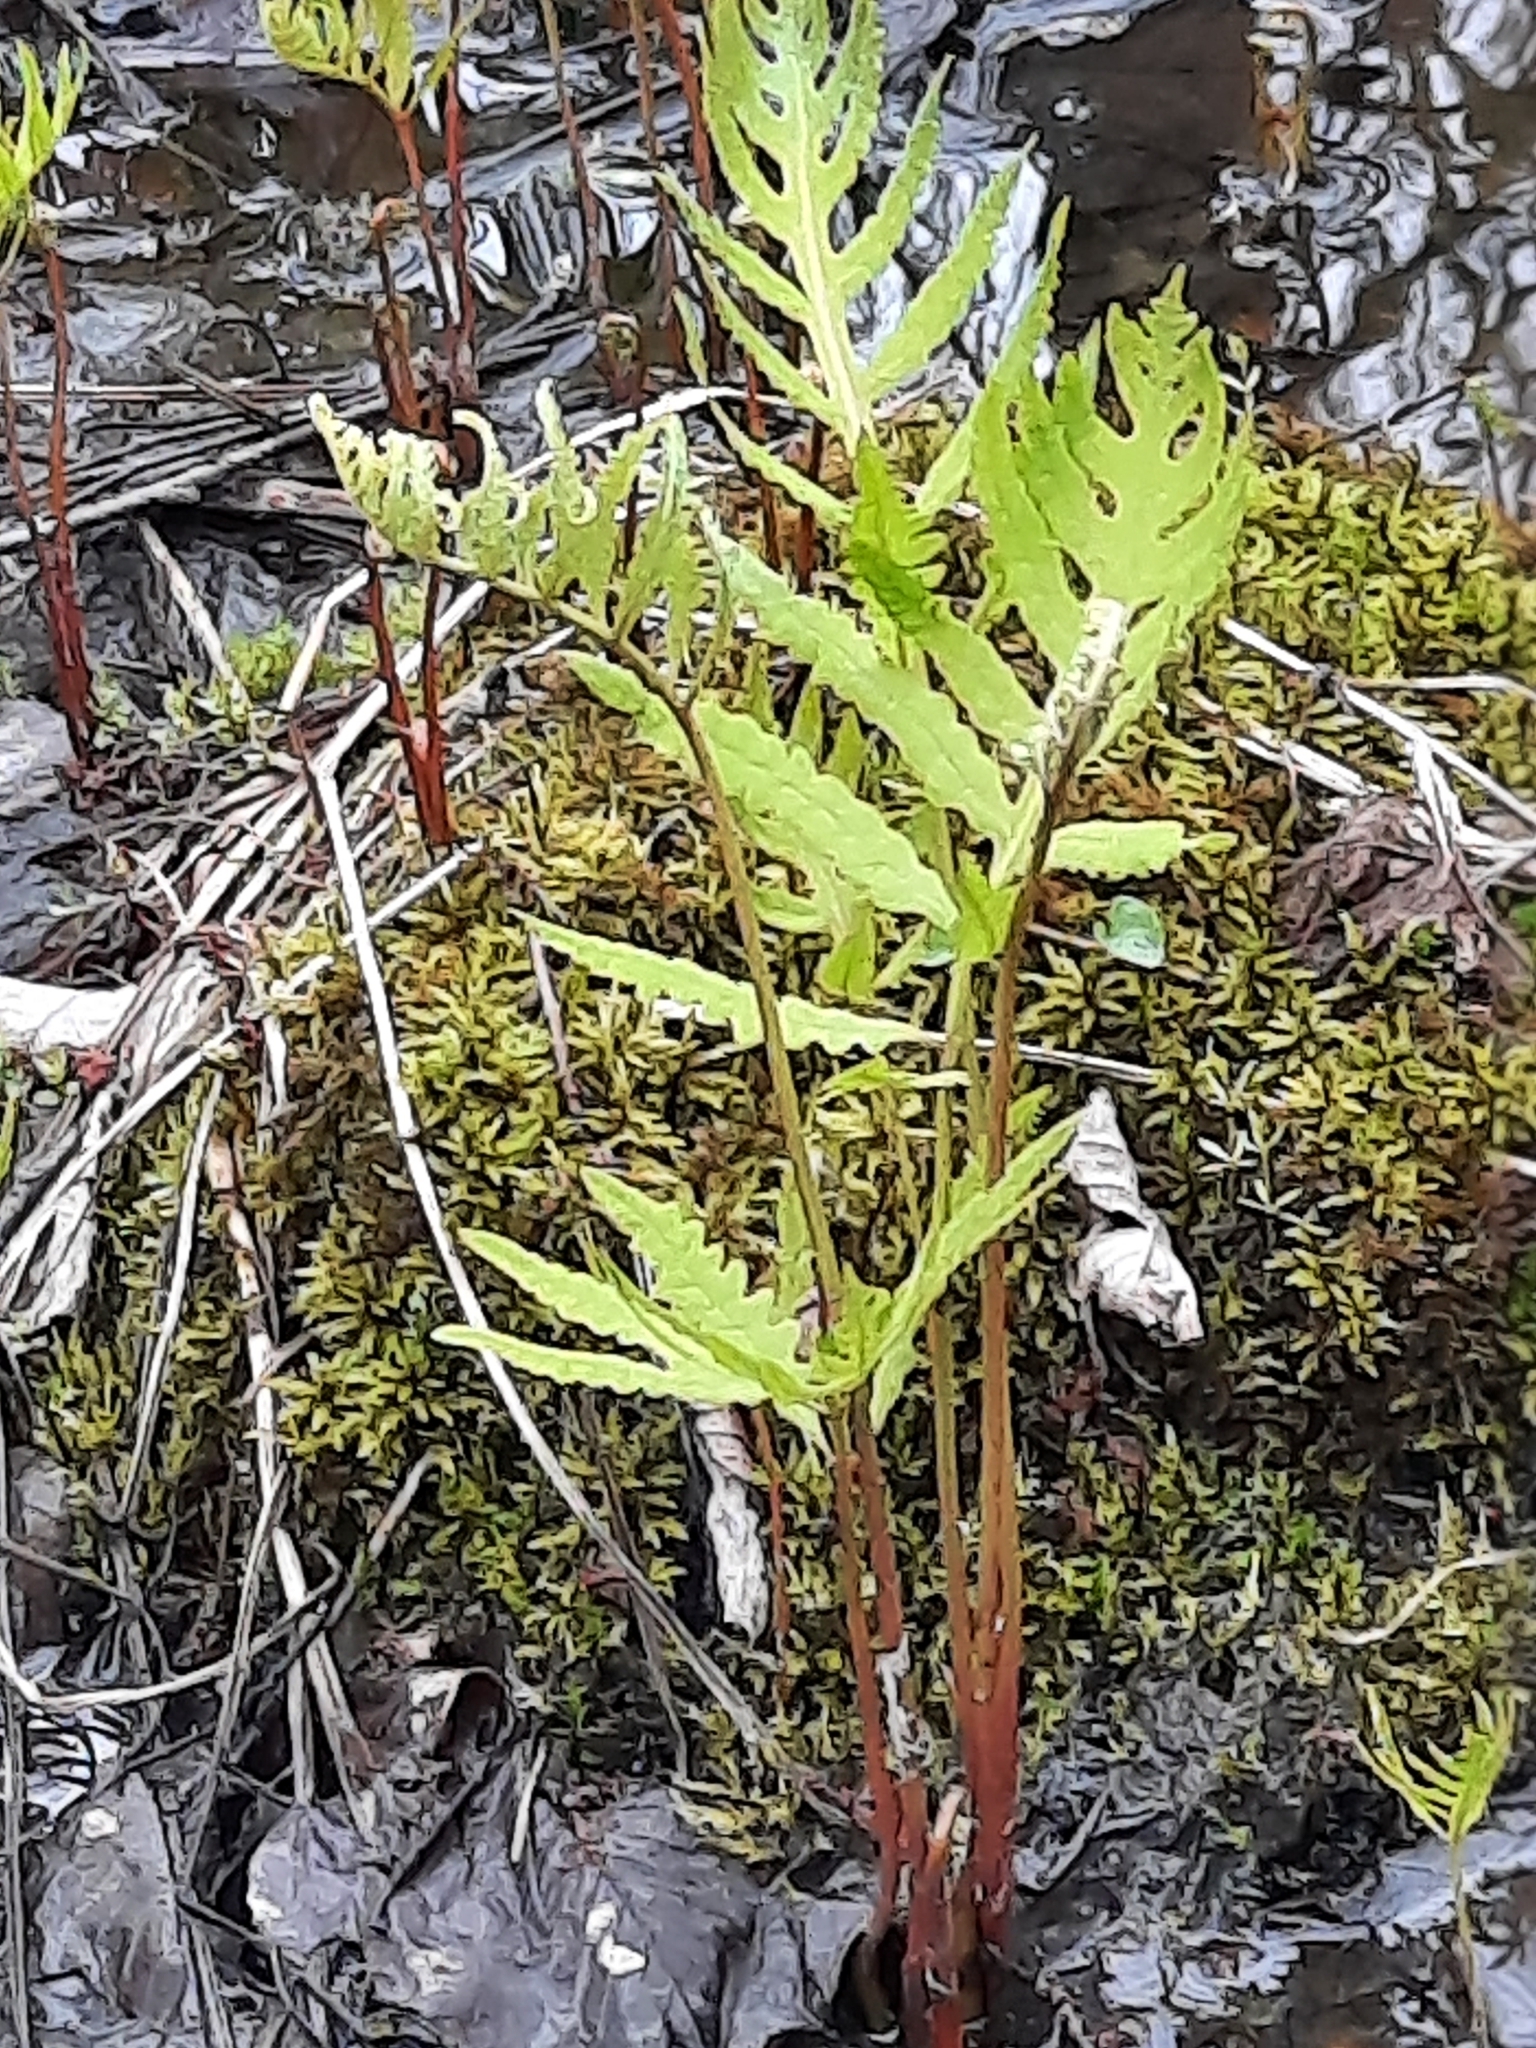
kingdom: Plantae
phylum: Tracheophyta
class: Polypodiopsida
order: Polypodiales
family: Onocleaceae
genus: Onoclea
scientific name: Onoclea sensibilis
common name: Sensitive fern
